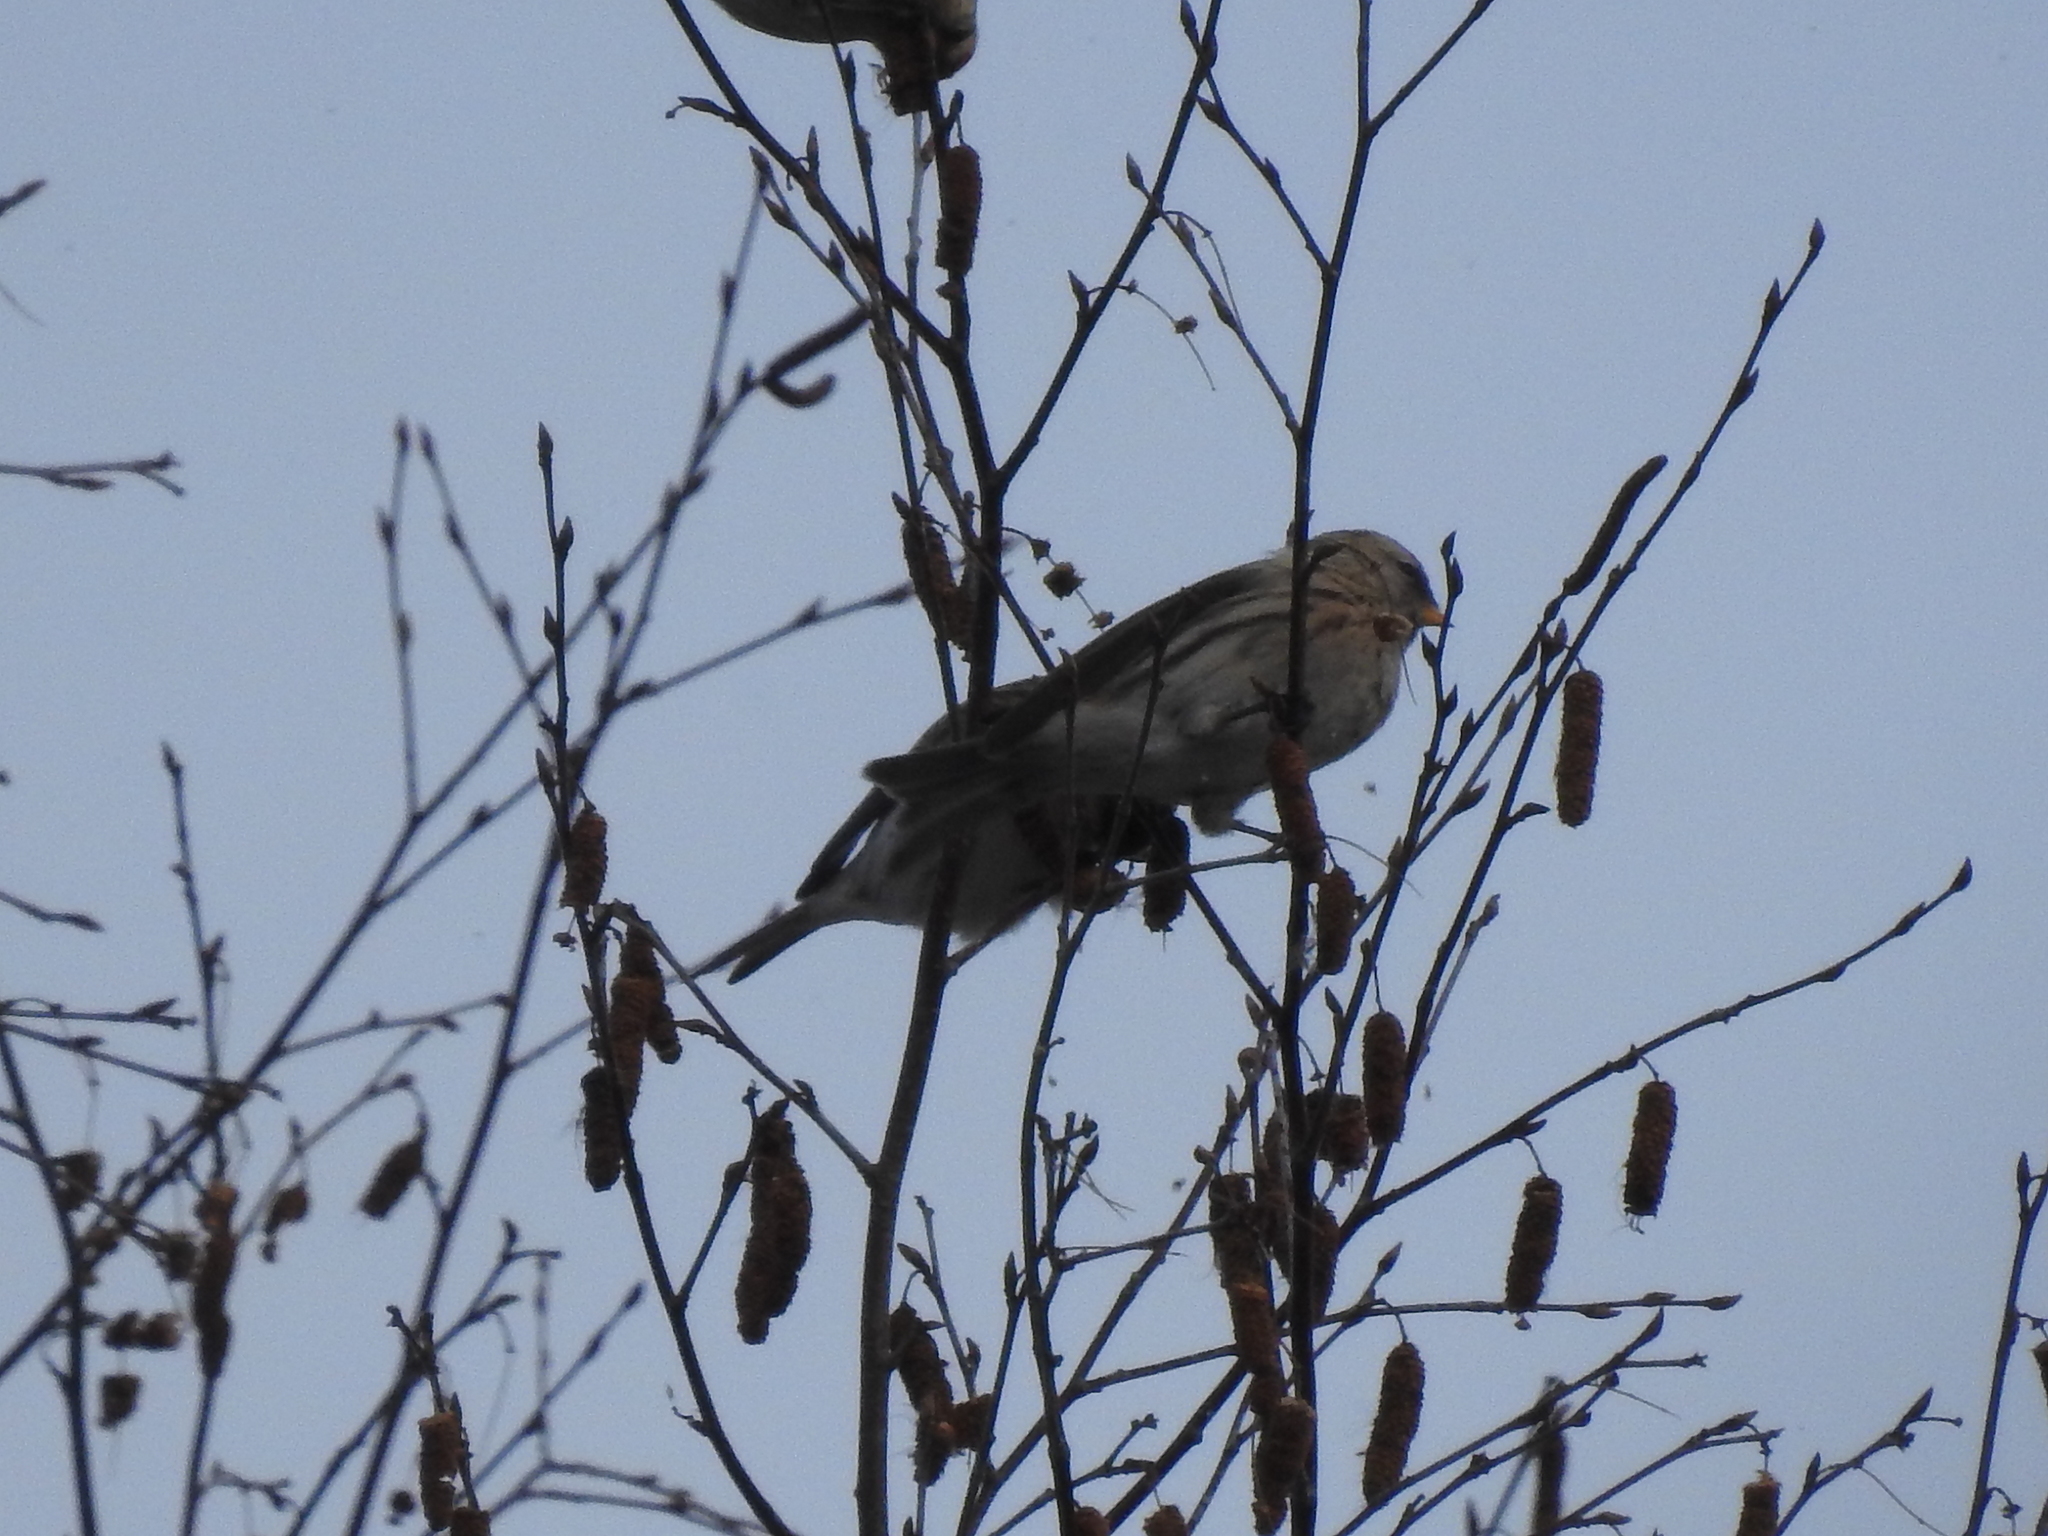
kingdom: Animalia
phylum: Chordata
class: Aves
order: Passeriformes
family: Fringillidae
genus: Acanthis
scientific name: Acanthis flammea
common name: Common redpoll
